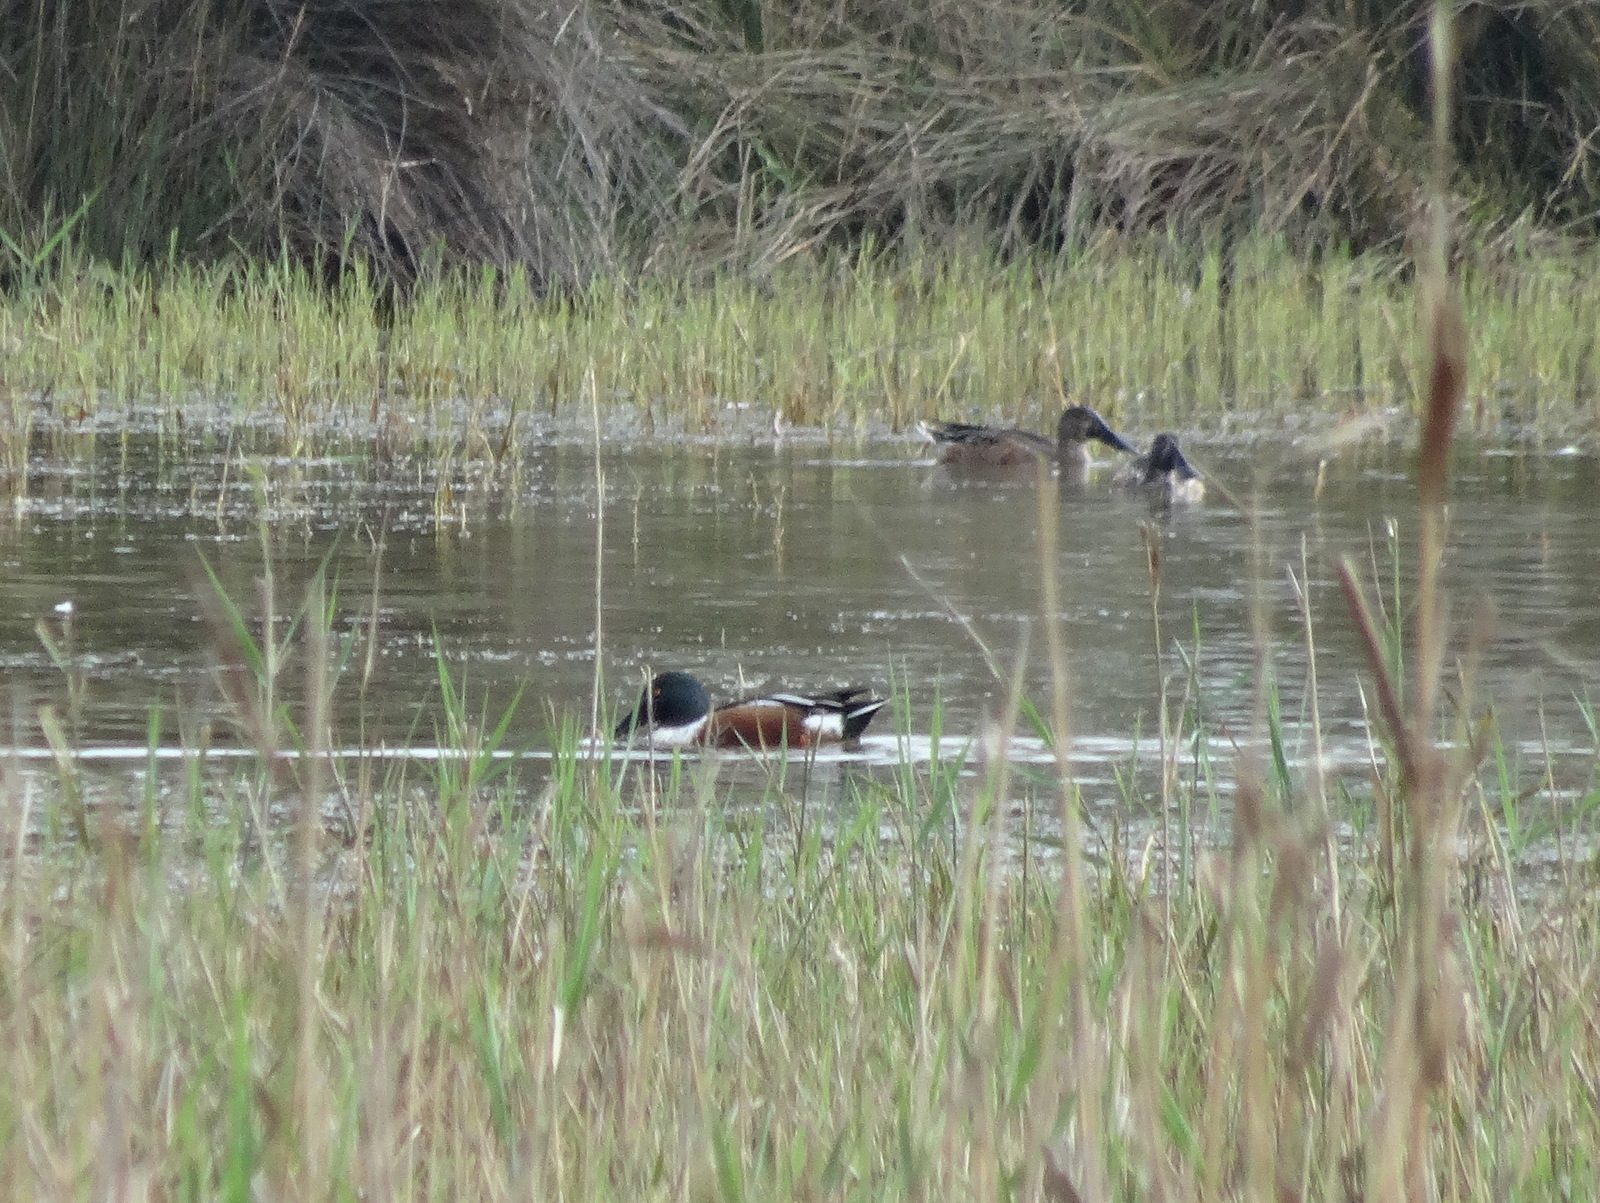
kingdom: Animalia
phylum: Chordata
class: Aves
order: Anseriformes
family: Anatidae
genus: Spatula
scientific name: Spatula clypeata
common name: Northern shoveler
